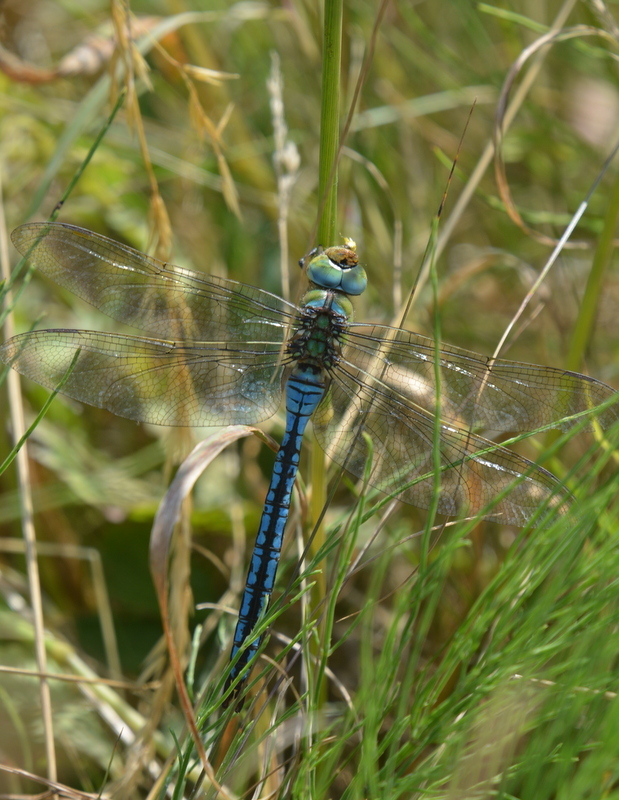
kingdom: Animalia
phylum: Arthropoda
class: Insecta
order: Odonata
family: Aeshnidae
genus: Anax
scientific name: Anax imperator
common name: Emperor dragonfly
